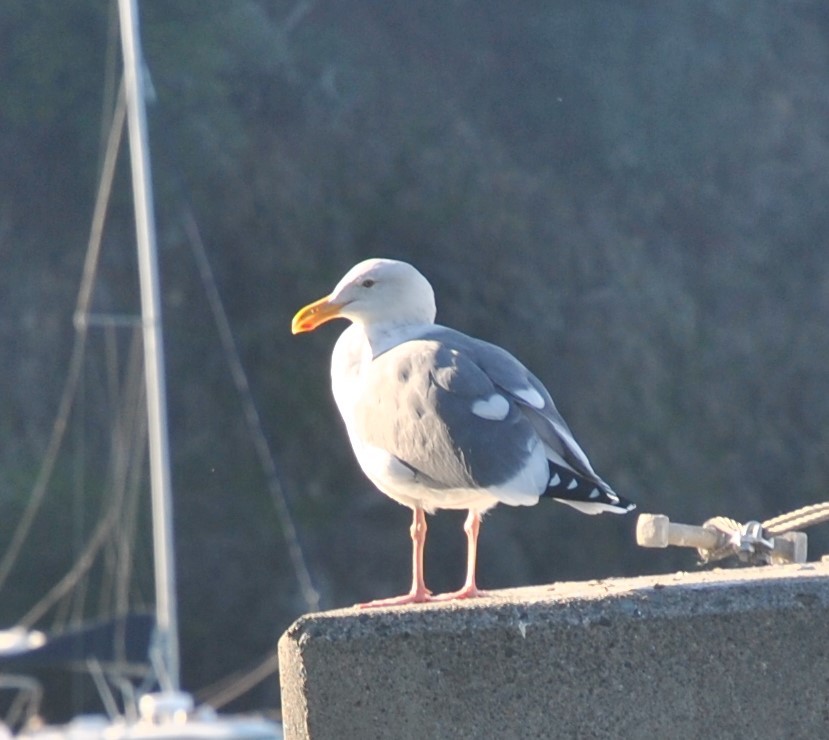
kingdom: Animalia
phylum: Chordata
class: Aves
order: Charadriiformes
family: Laridae
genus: Larus
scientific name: Larus occidentalis
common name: Western gull
